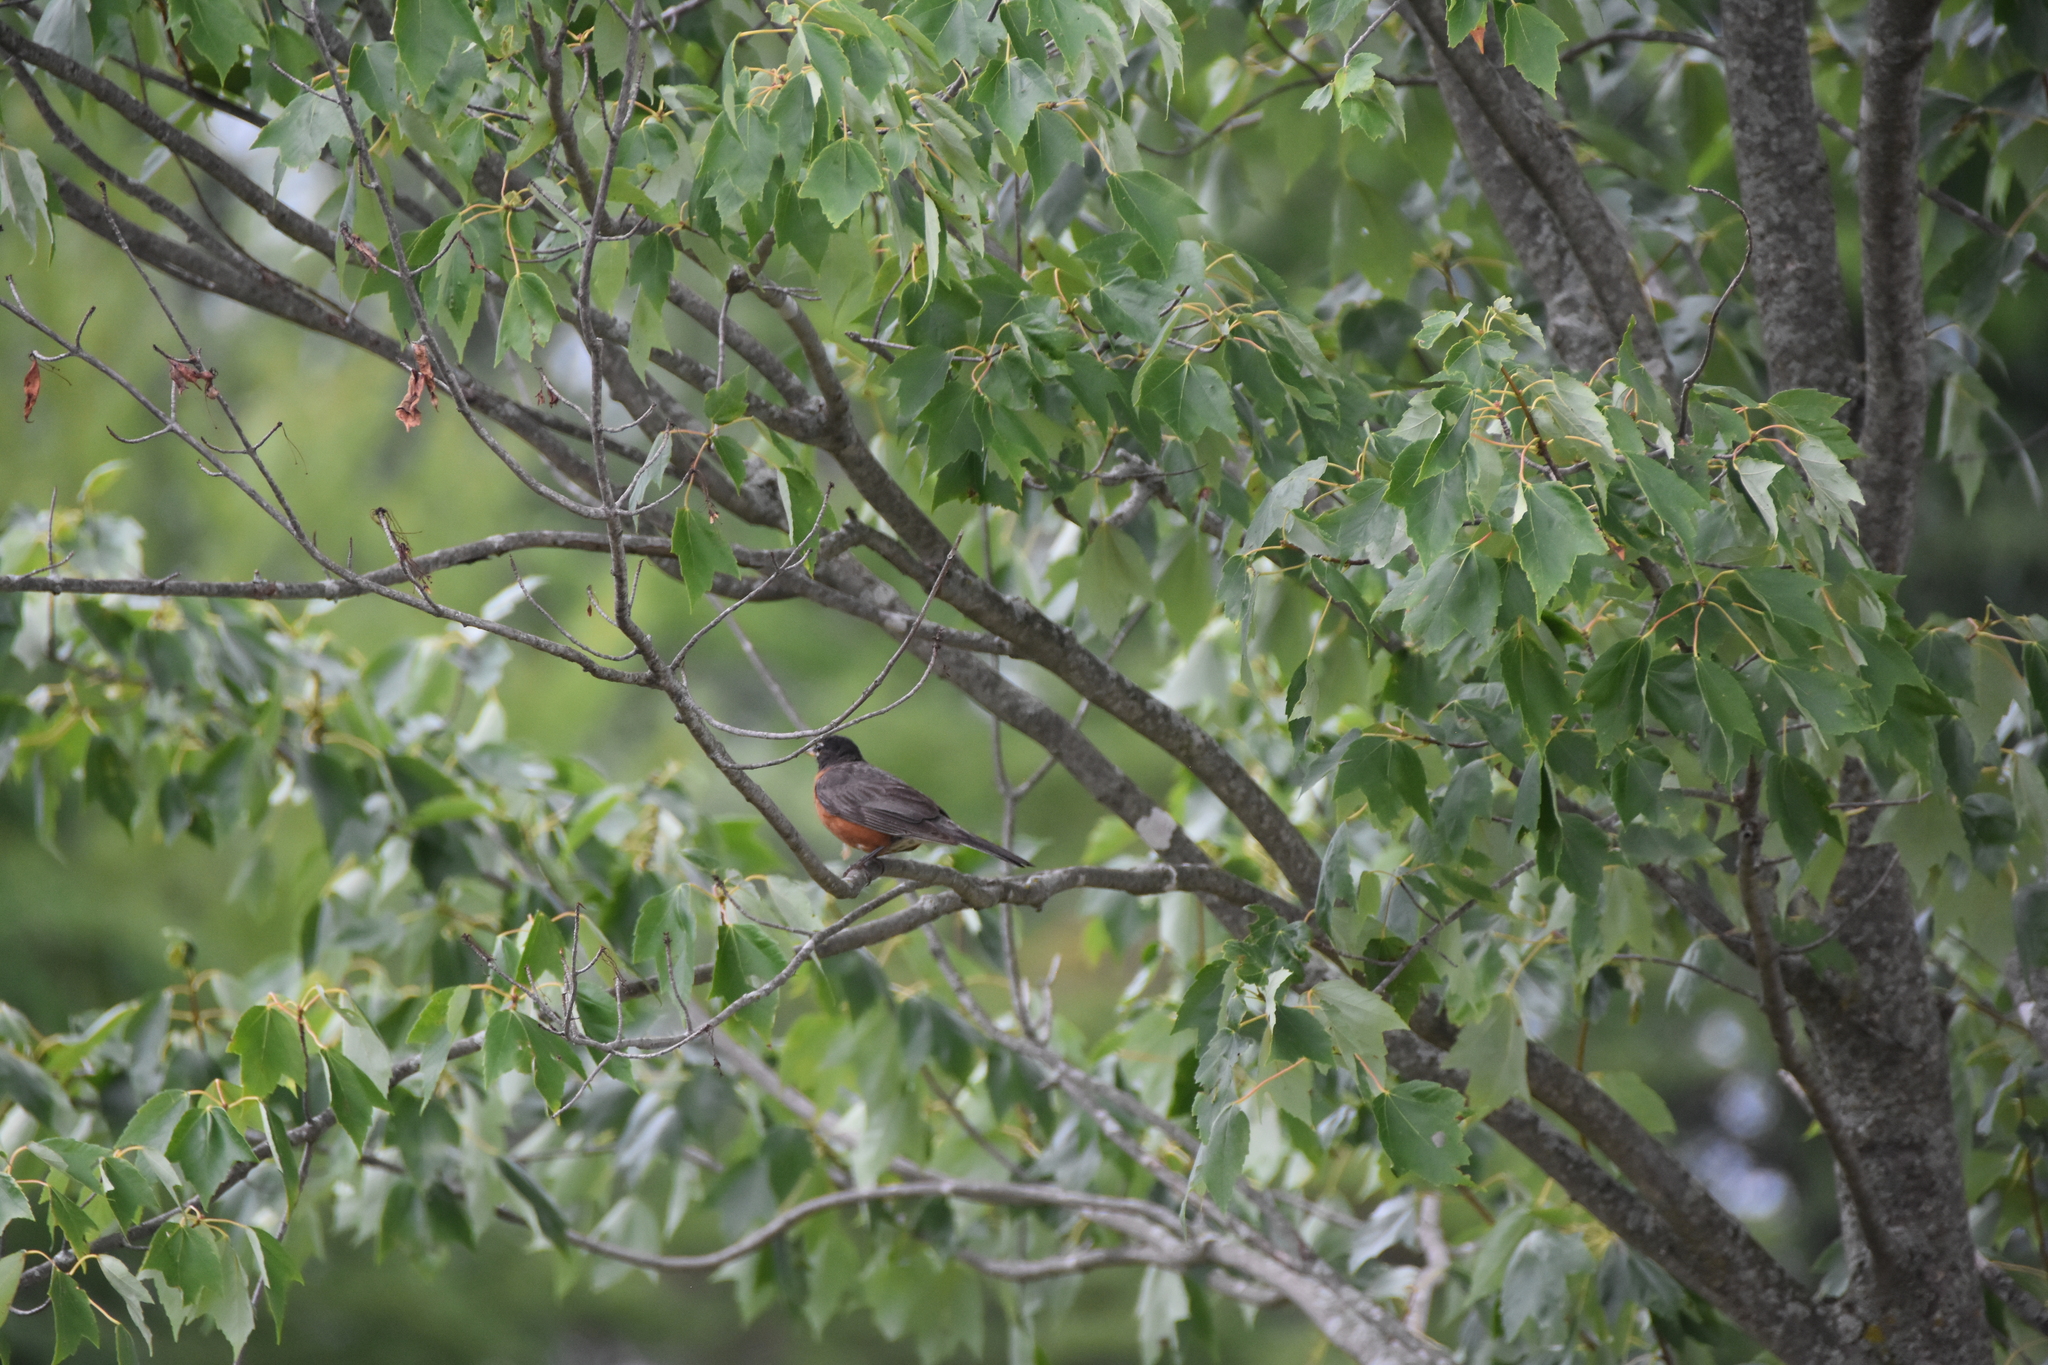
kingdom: Animalia
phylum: Chordata
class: Aves
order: Passeriformes
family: Turdidae
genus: Turdus
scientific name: Turdus migratorius
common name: American robin
